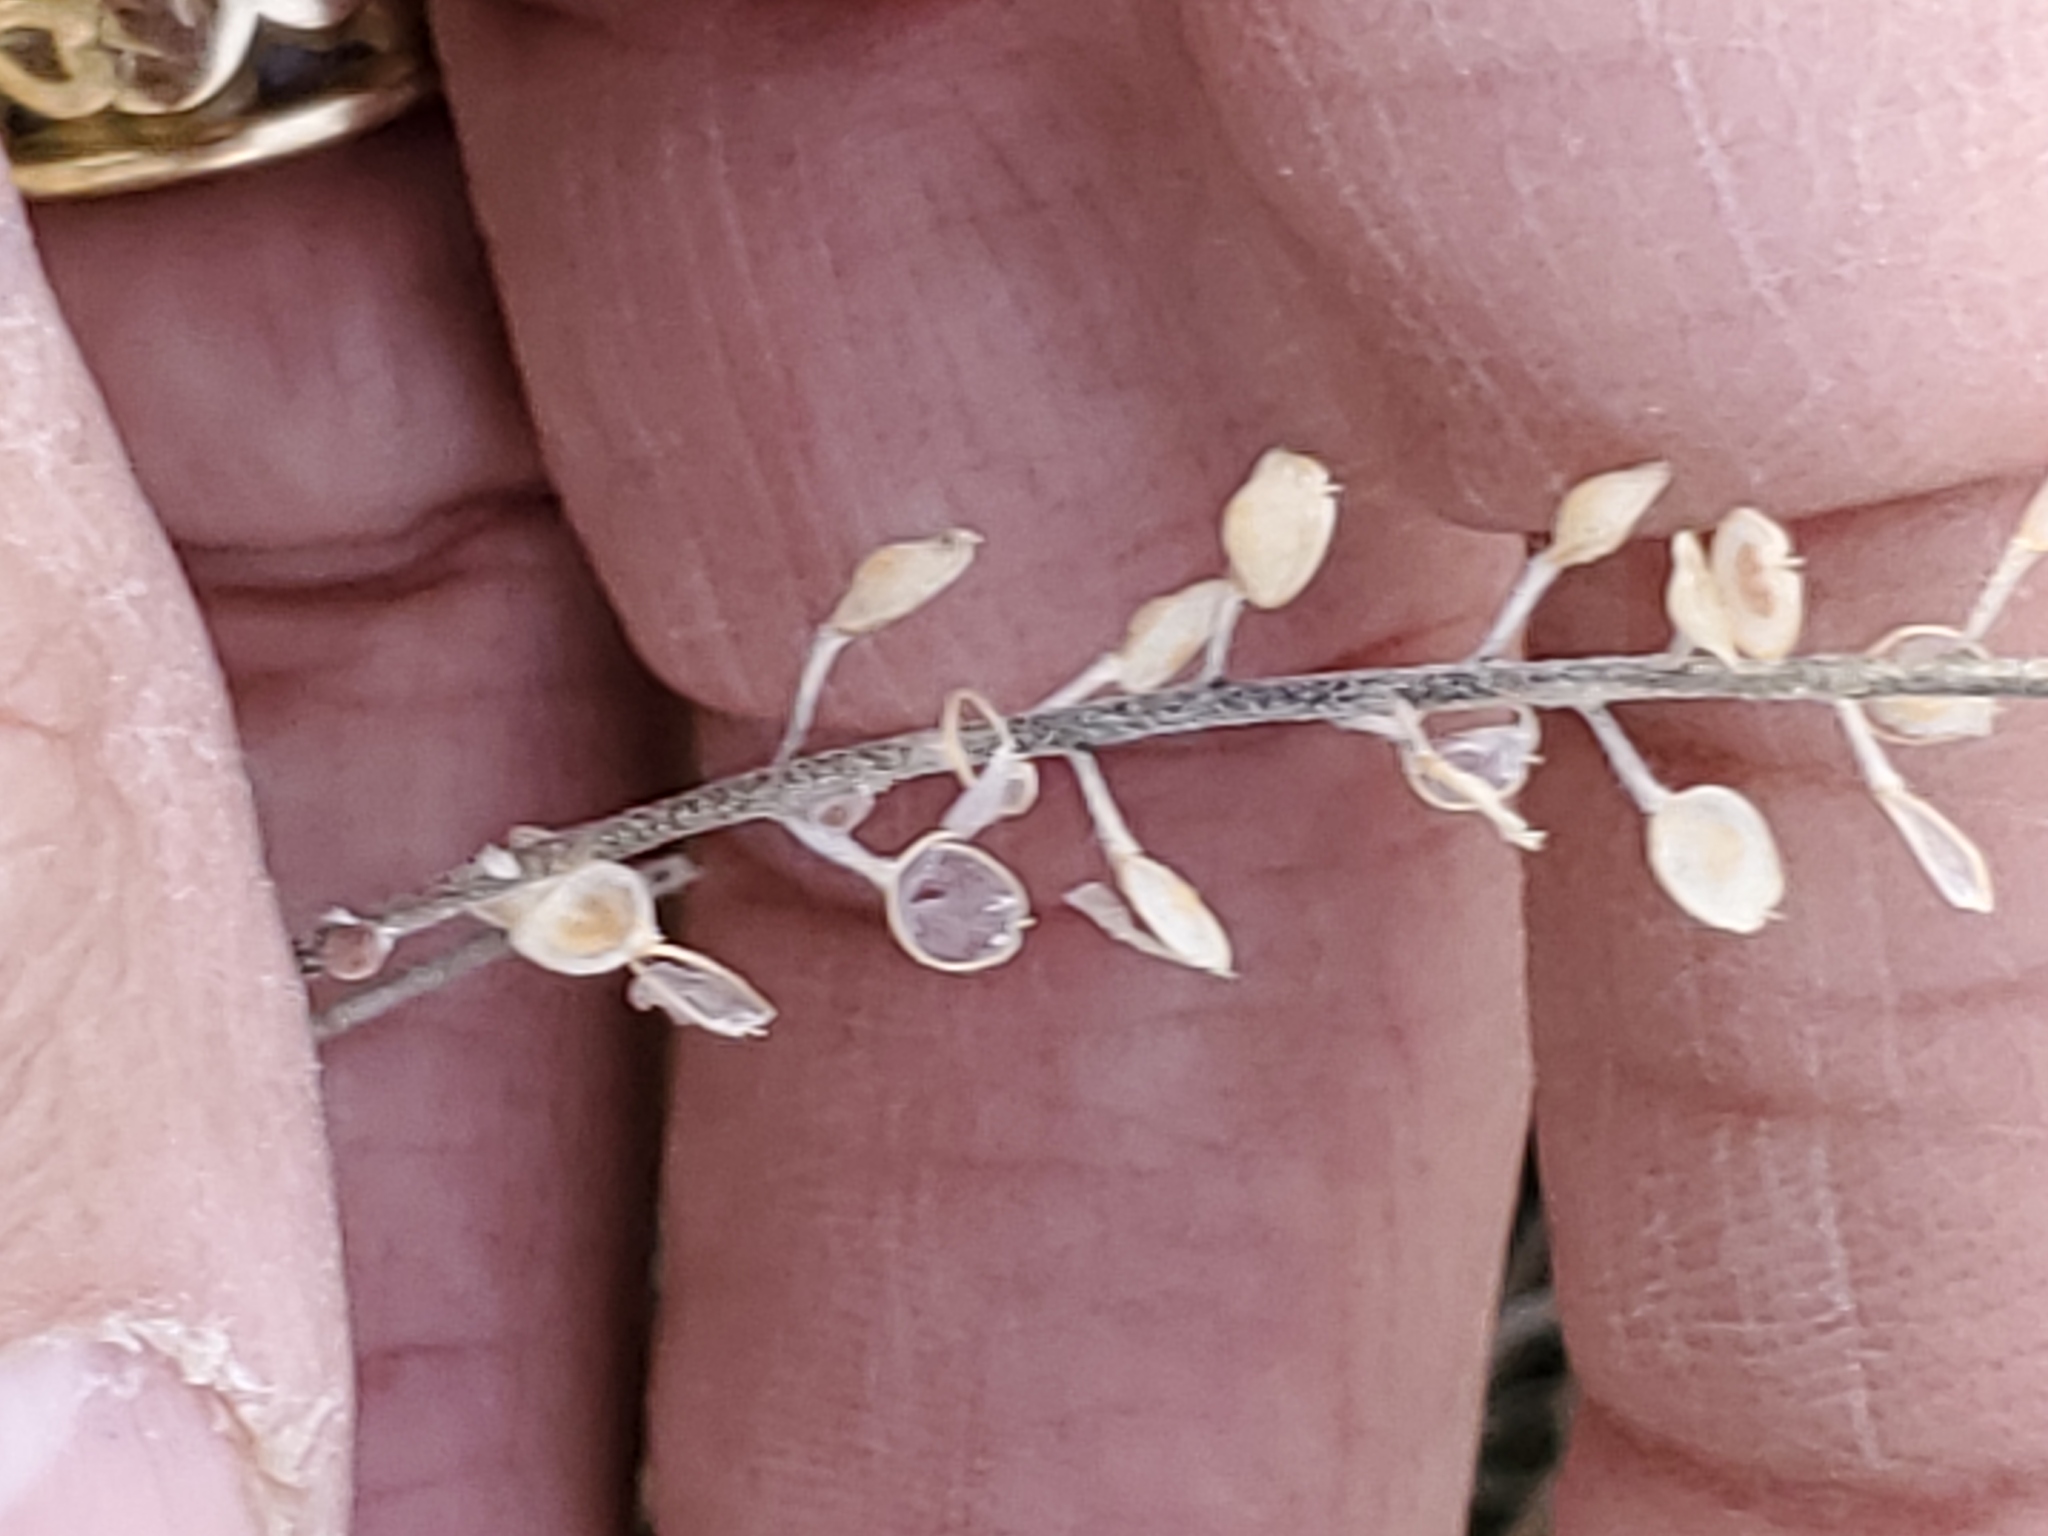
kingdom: Plantae
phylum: Tracheophyta
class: Magnoliopsida
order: Brassicales
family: Brassicaceae
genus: Alyssum
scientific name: Alyssum turkestanicum
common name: Desert alyssum
